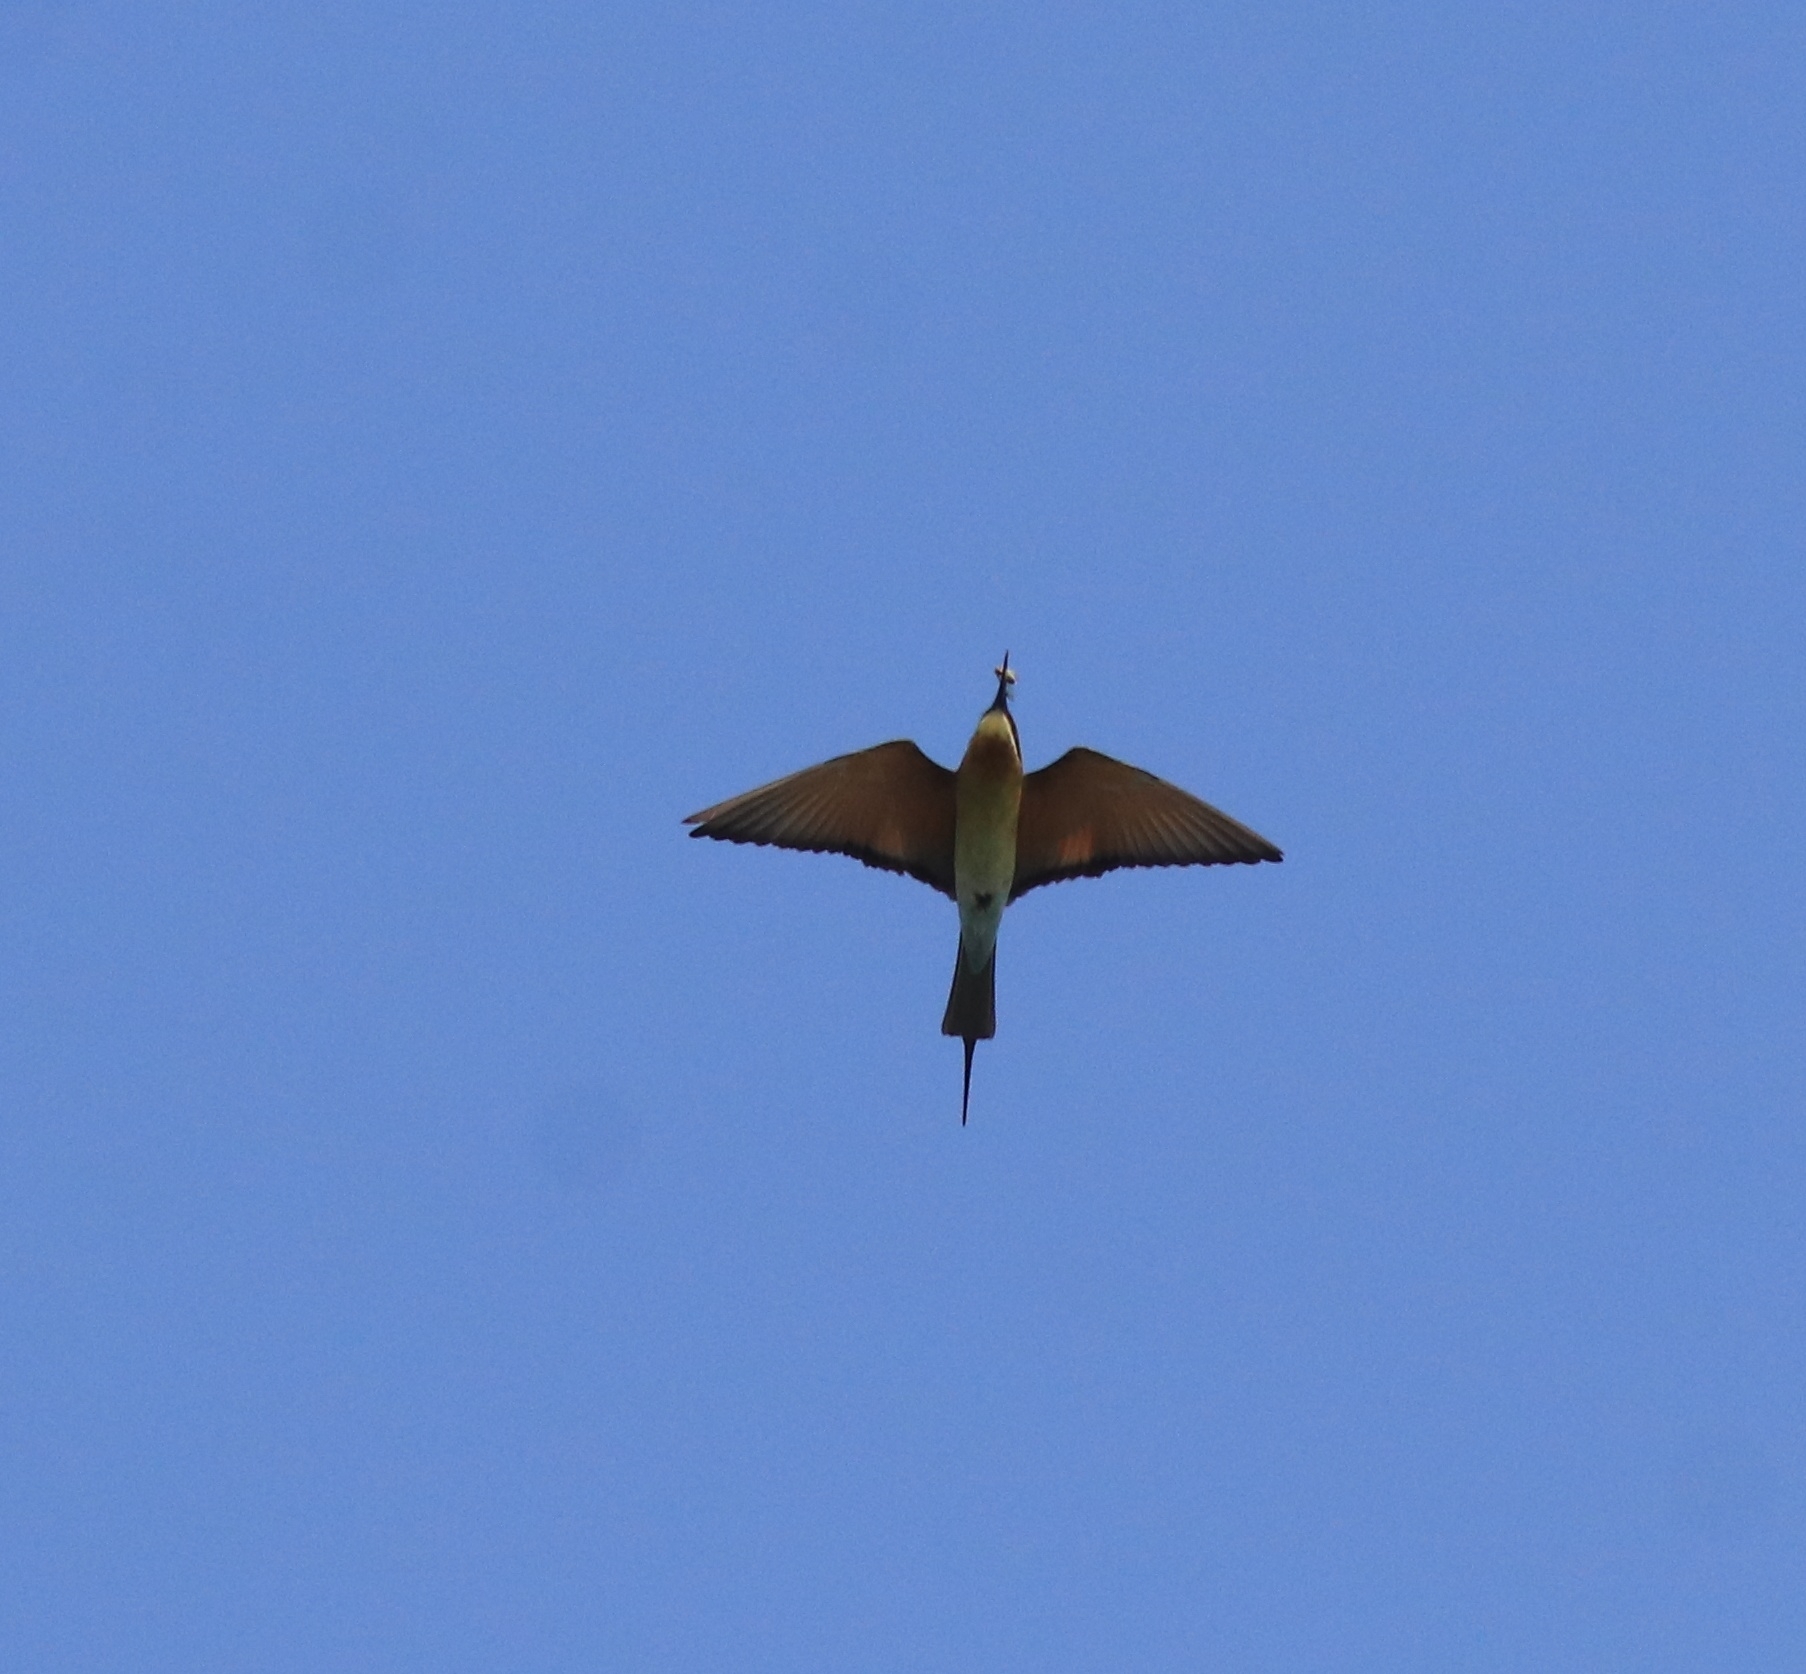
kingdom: Animalia
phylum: Chordata
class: Aves
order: Coraciiformes
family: Meropidae
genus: Merops
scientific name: Merops philippinus
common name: Blue-tailed bee-eater
